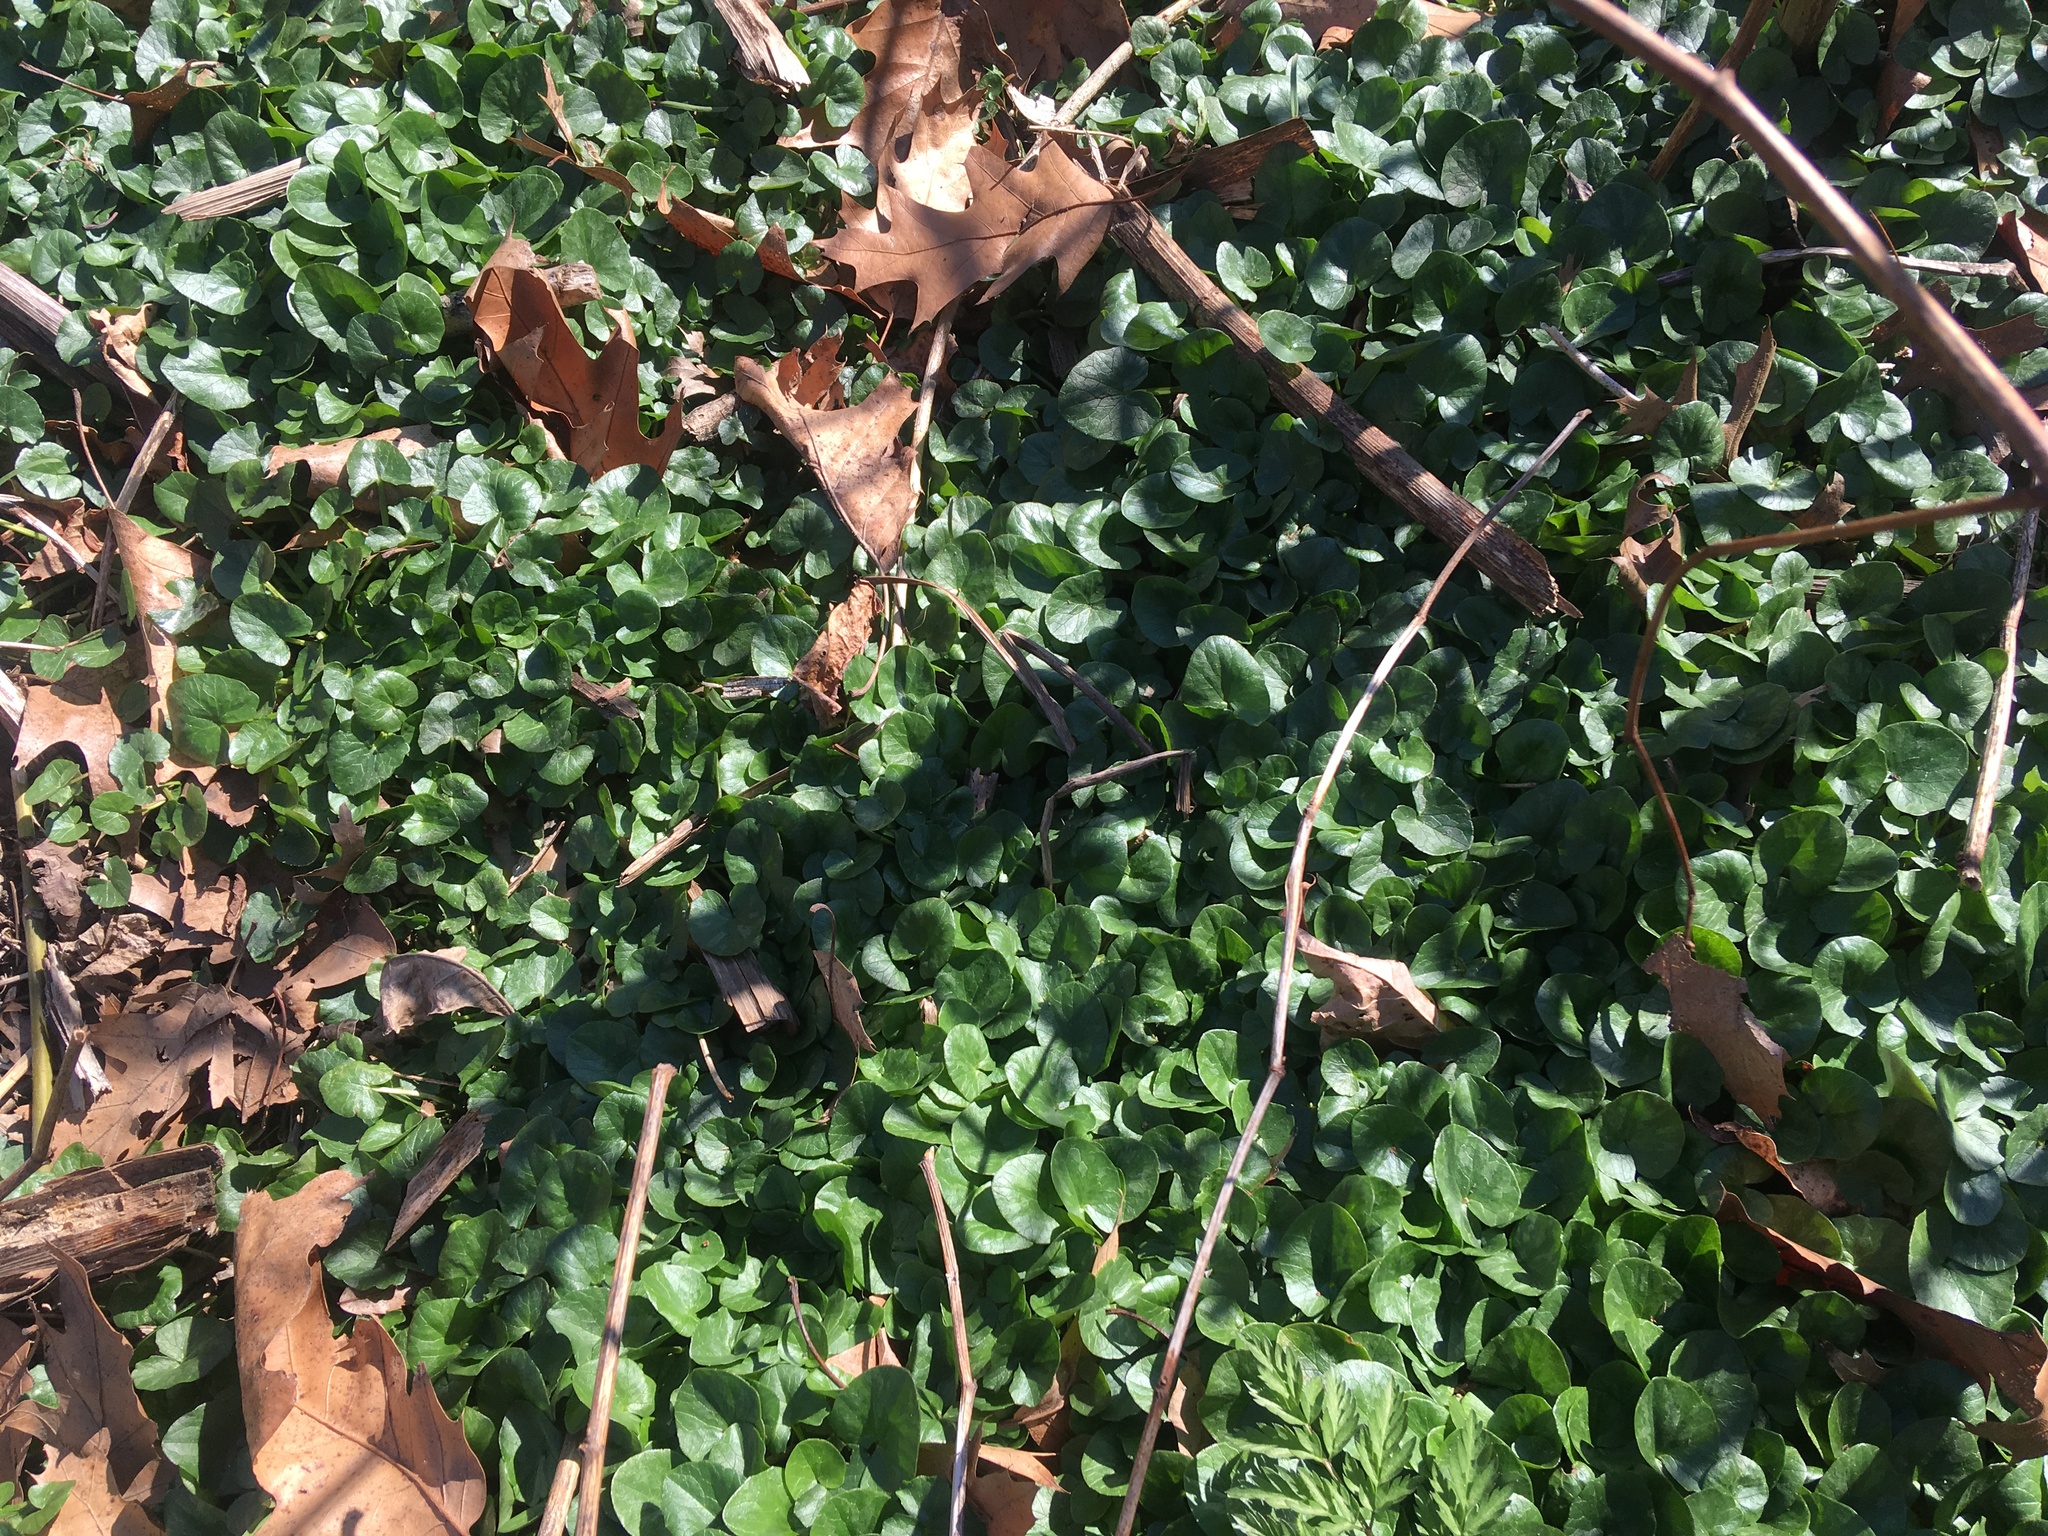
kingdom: Plantae
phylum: Tracheophyta
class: Magnoliopsida
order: Ranunculales
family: Ranunculaceae
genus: Ficaria
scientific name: Ficaria verna
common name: Lesser celandine
